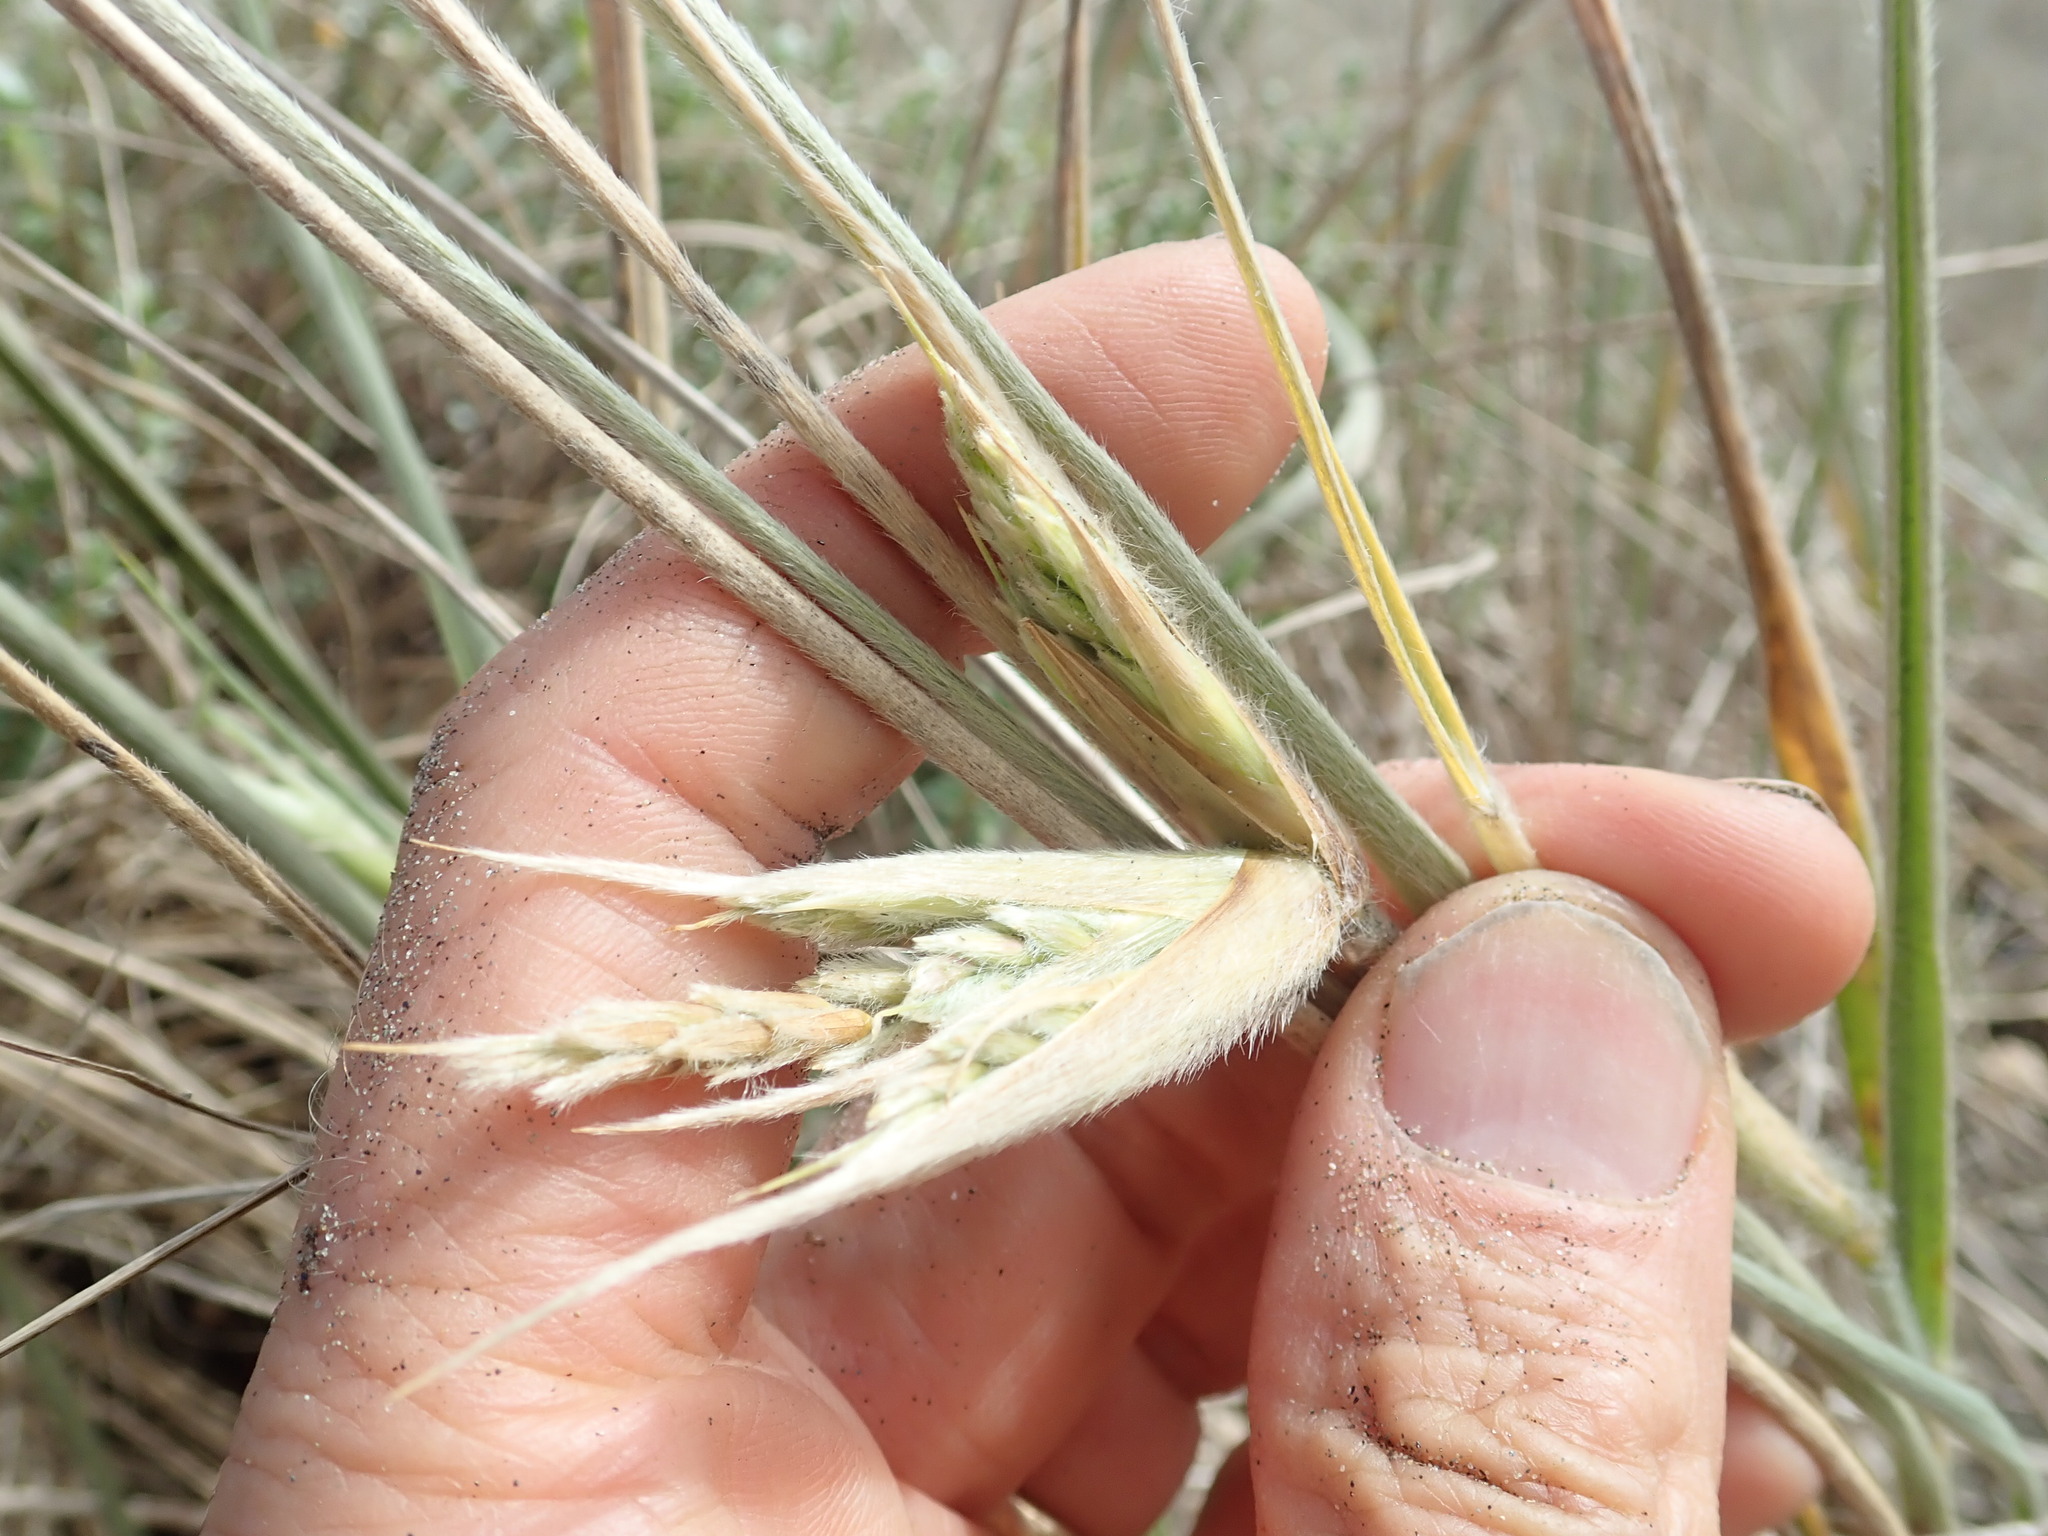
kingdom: Plantae
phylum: Tracheophyta
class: Liliopsida
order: Poales
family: Poaceae
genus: Spinifex
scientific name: Spinifex sericeus
